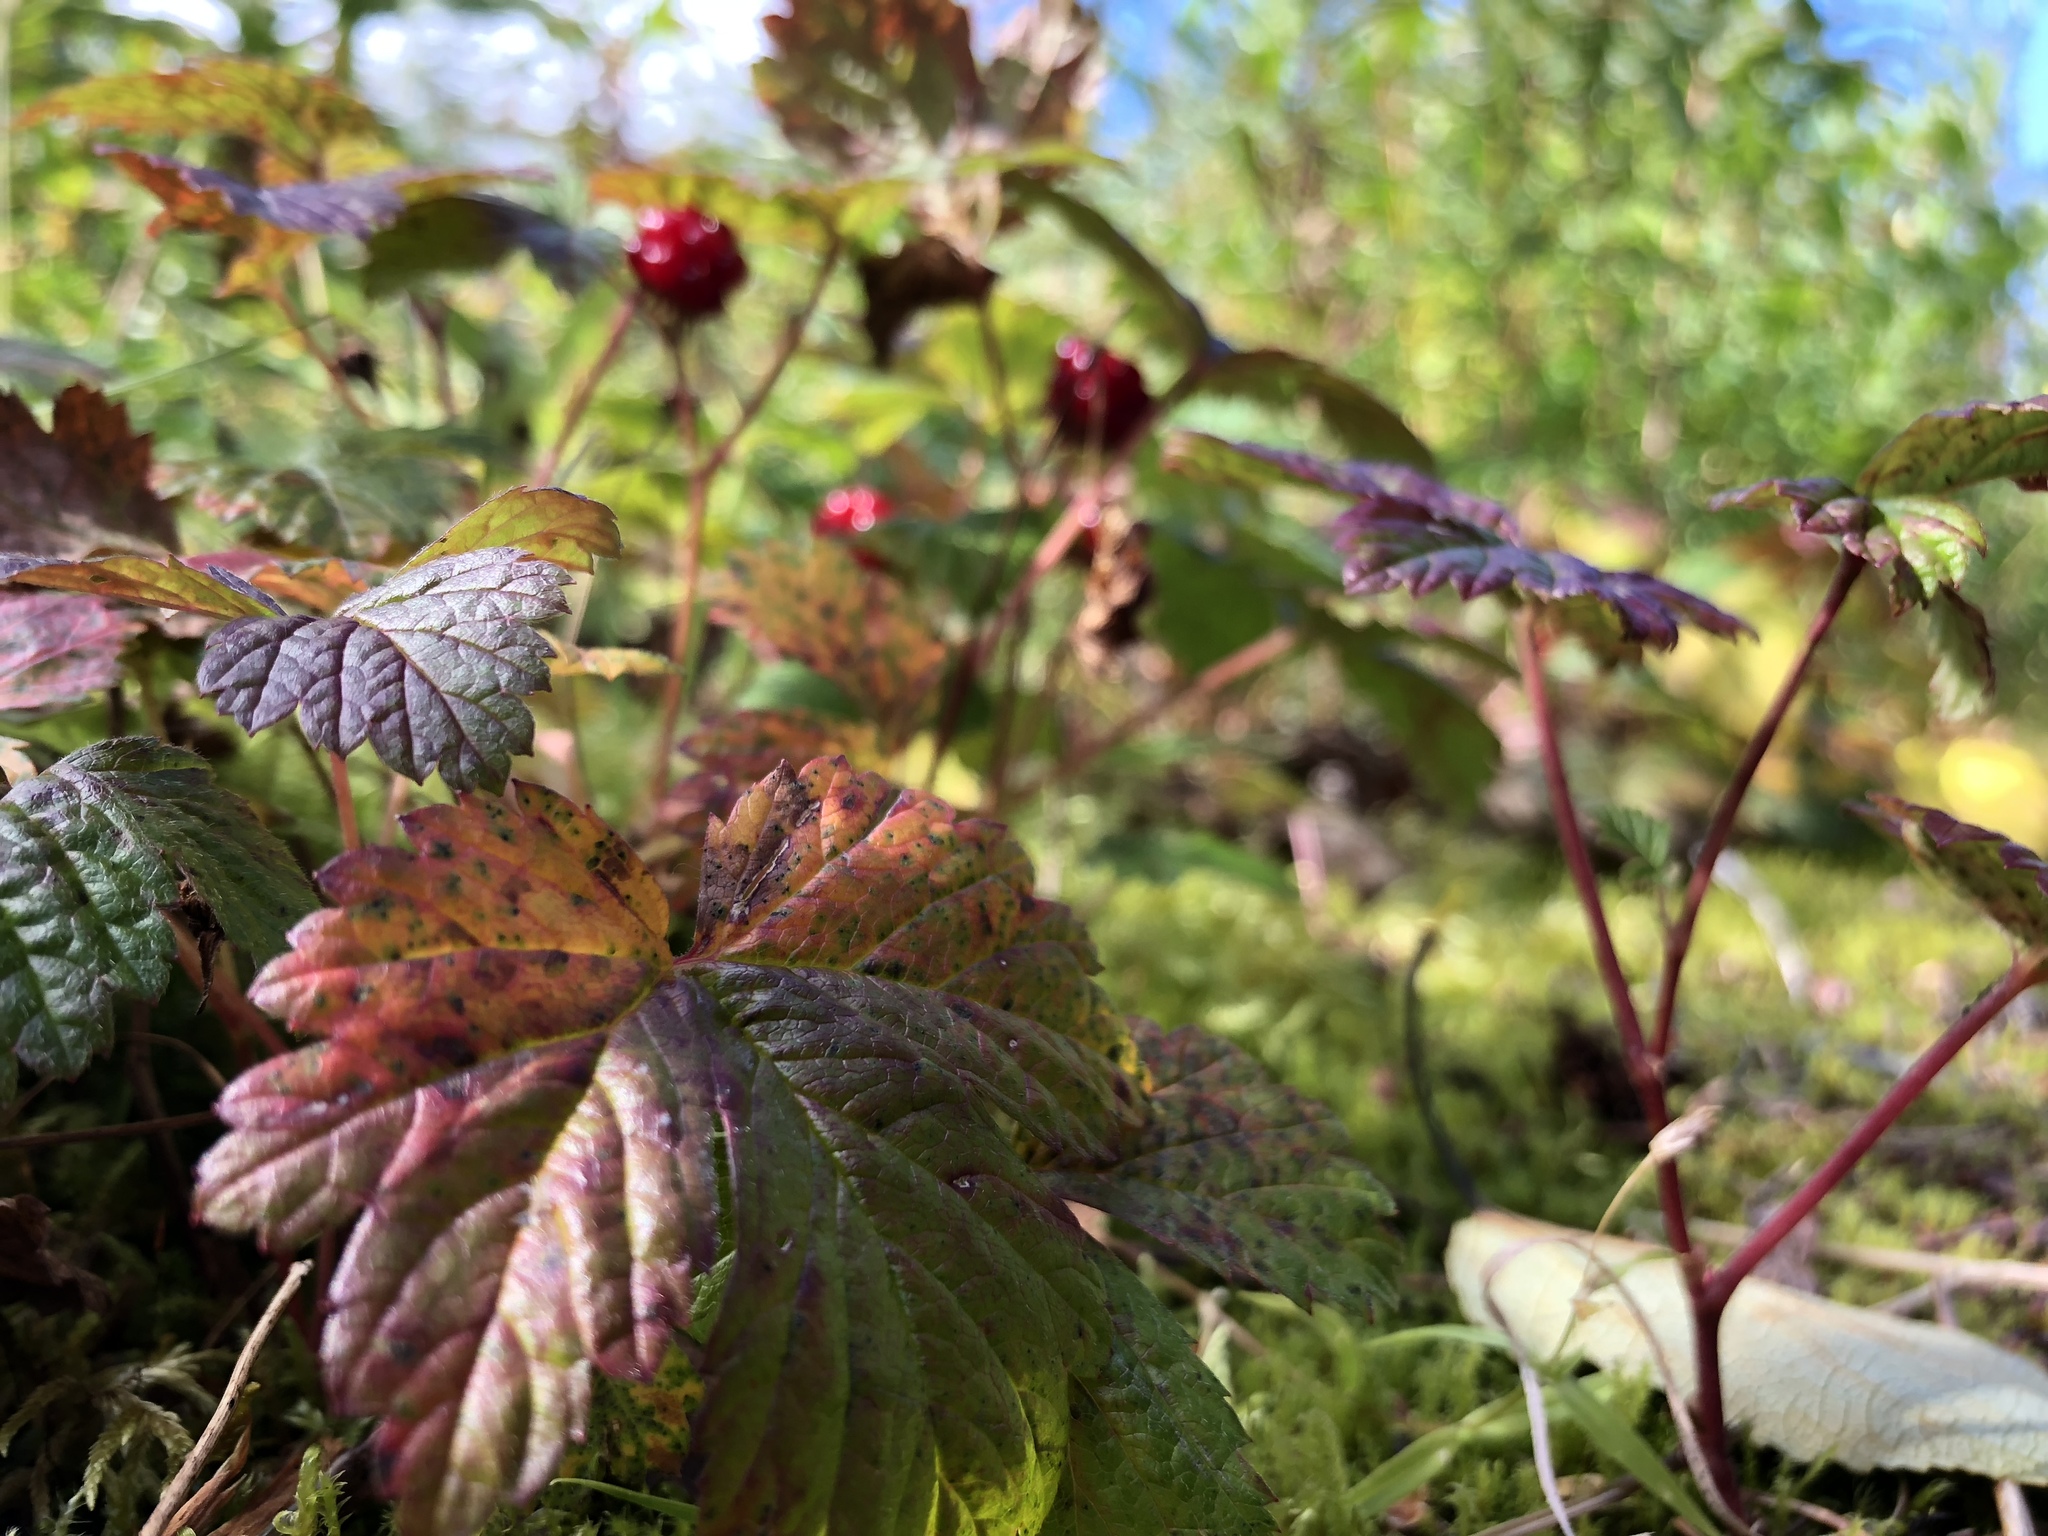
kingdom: Plantae
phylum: Tracheophyta
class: Magnoliopsida
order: Rosales
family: Rosaceae
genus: Rubus
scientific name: Rubus arcticus
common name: Arctic bramble
